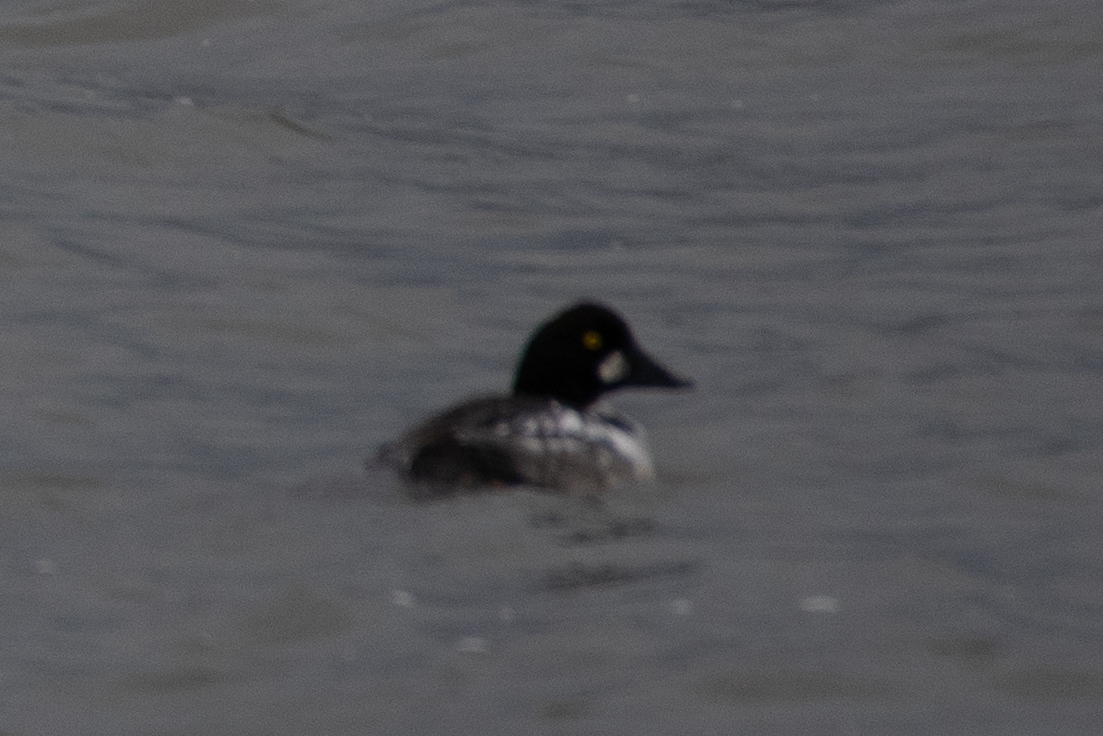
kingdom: Animalia
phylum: Chordata
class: Aves
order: Anseriformes
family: Anatidae
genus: Bucephala
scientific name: Bucephala clangula
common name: Common goldeneye
